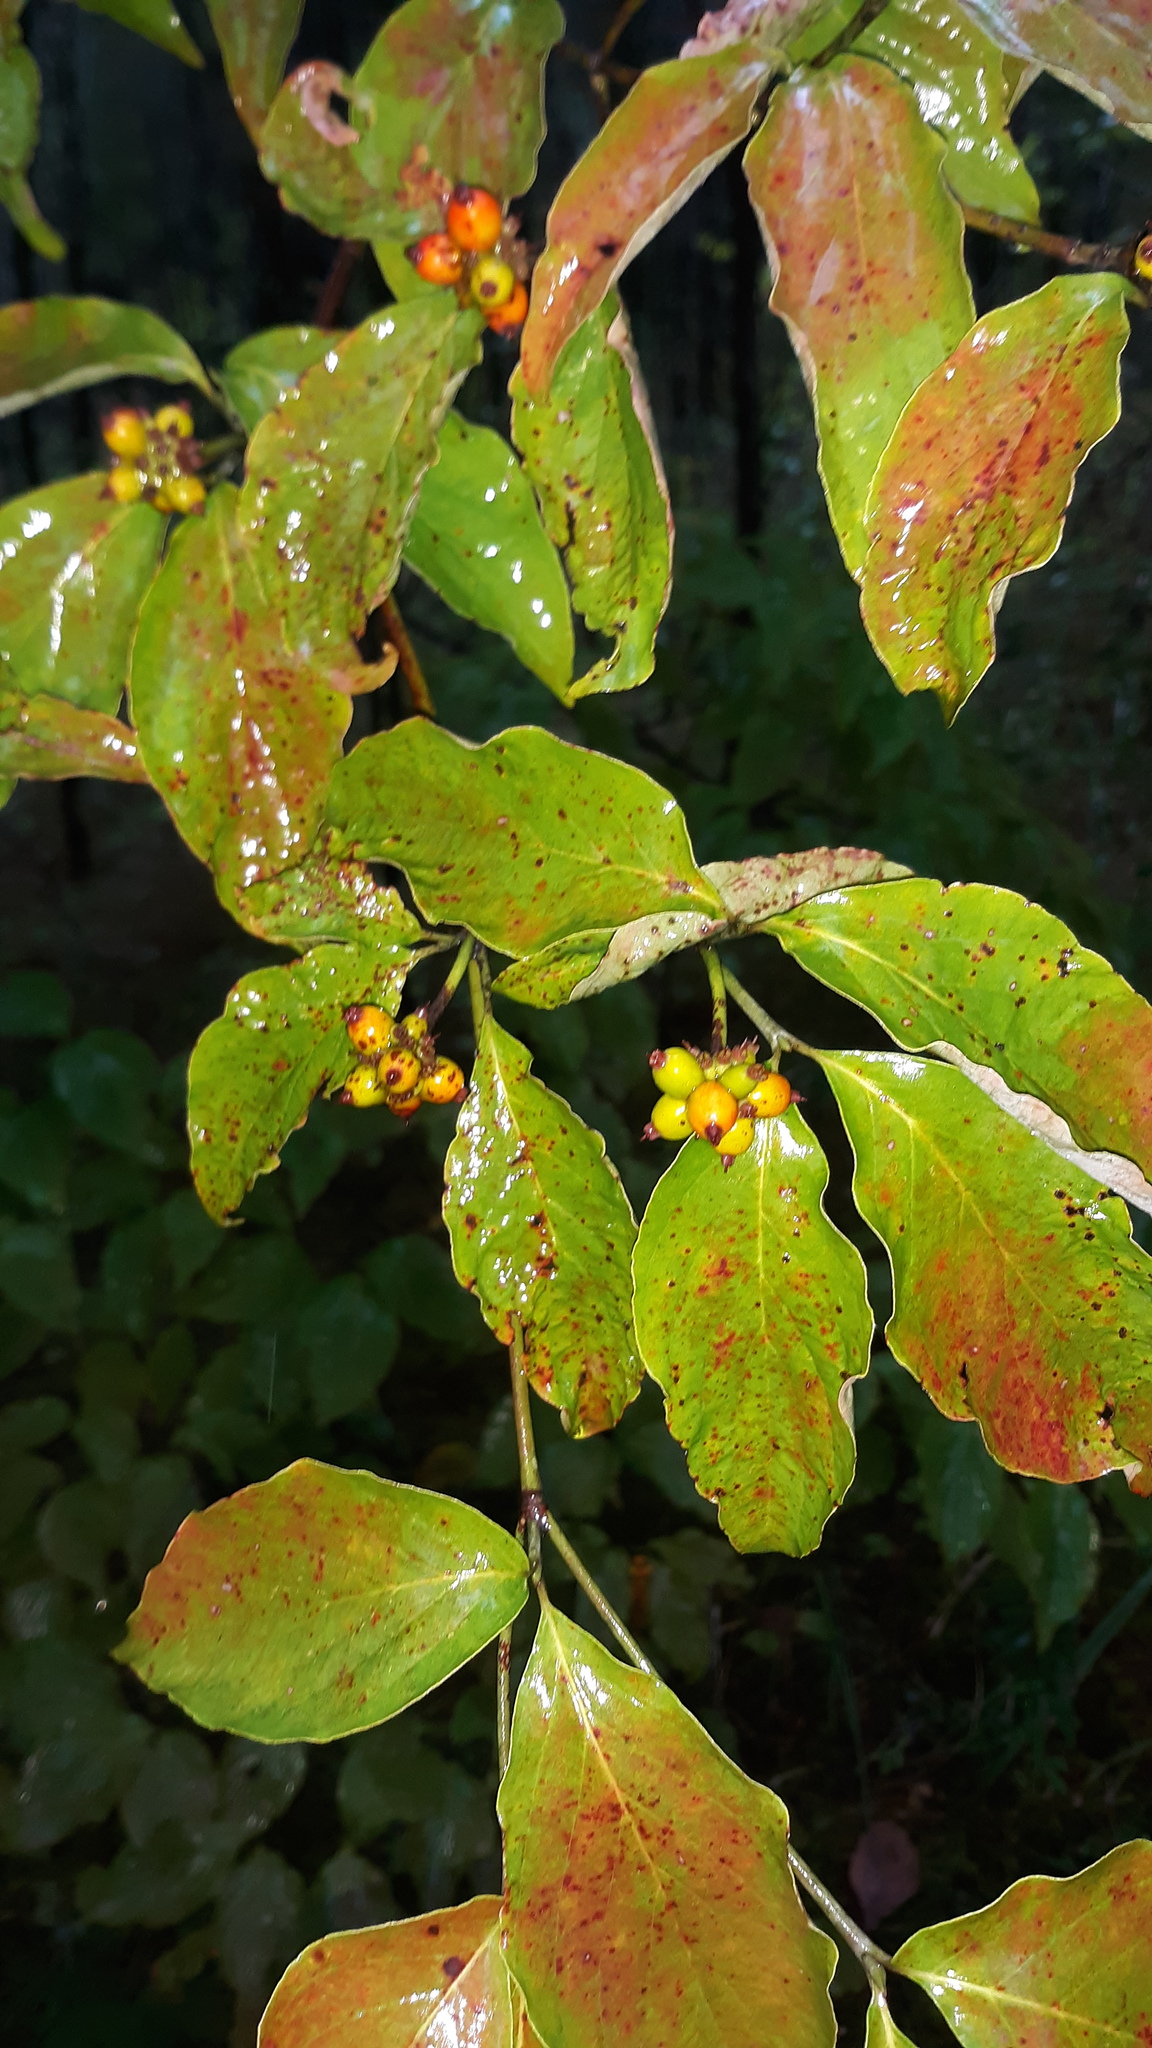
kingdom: Plantae
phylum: Tracheophyta
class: Magnoliopsida
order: Cornales
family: Cornaceae
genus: Cornus
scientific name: Cornus florida
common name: Flowering dogwood
